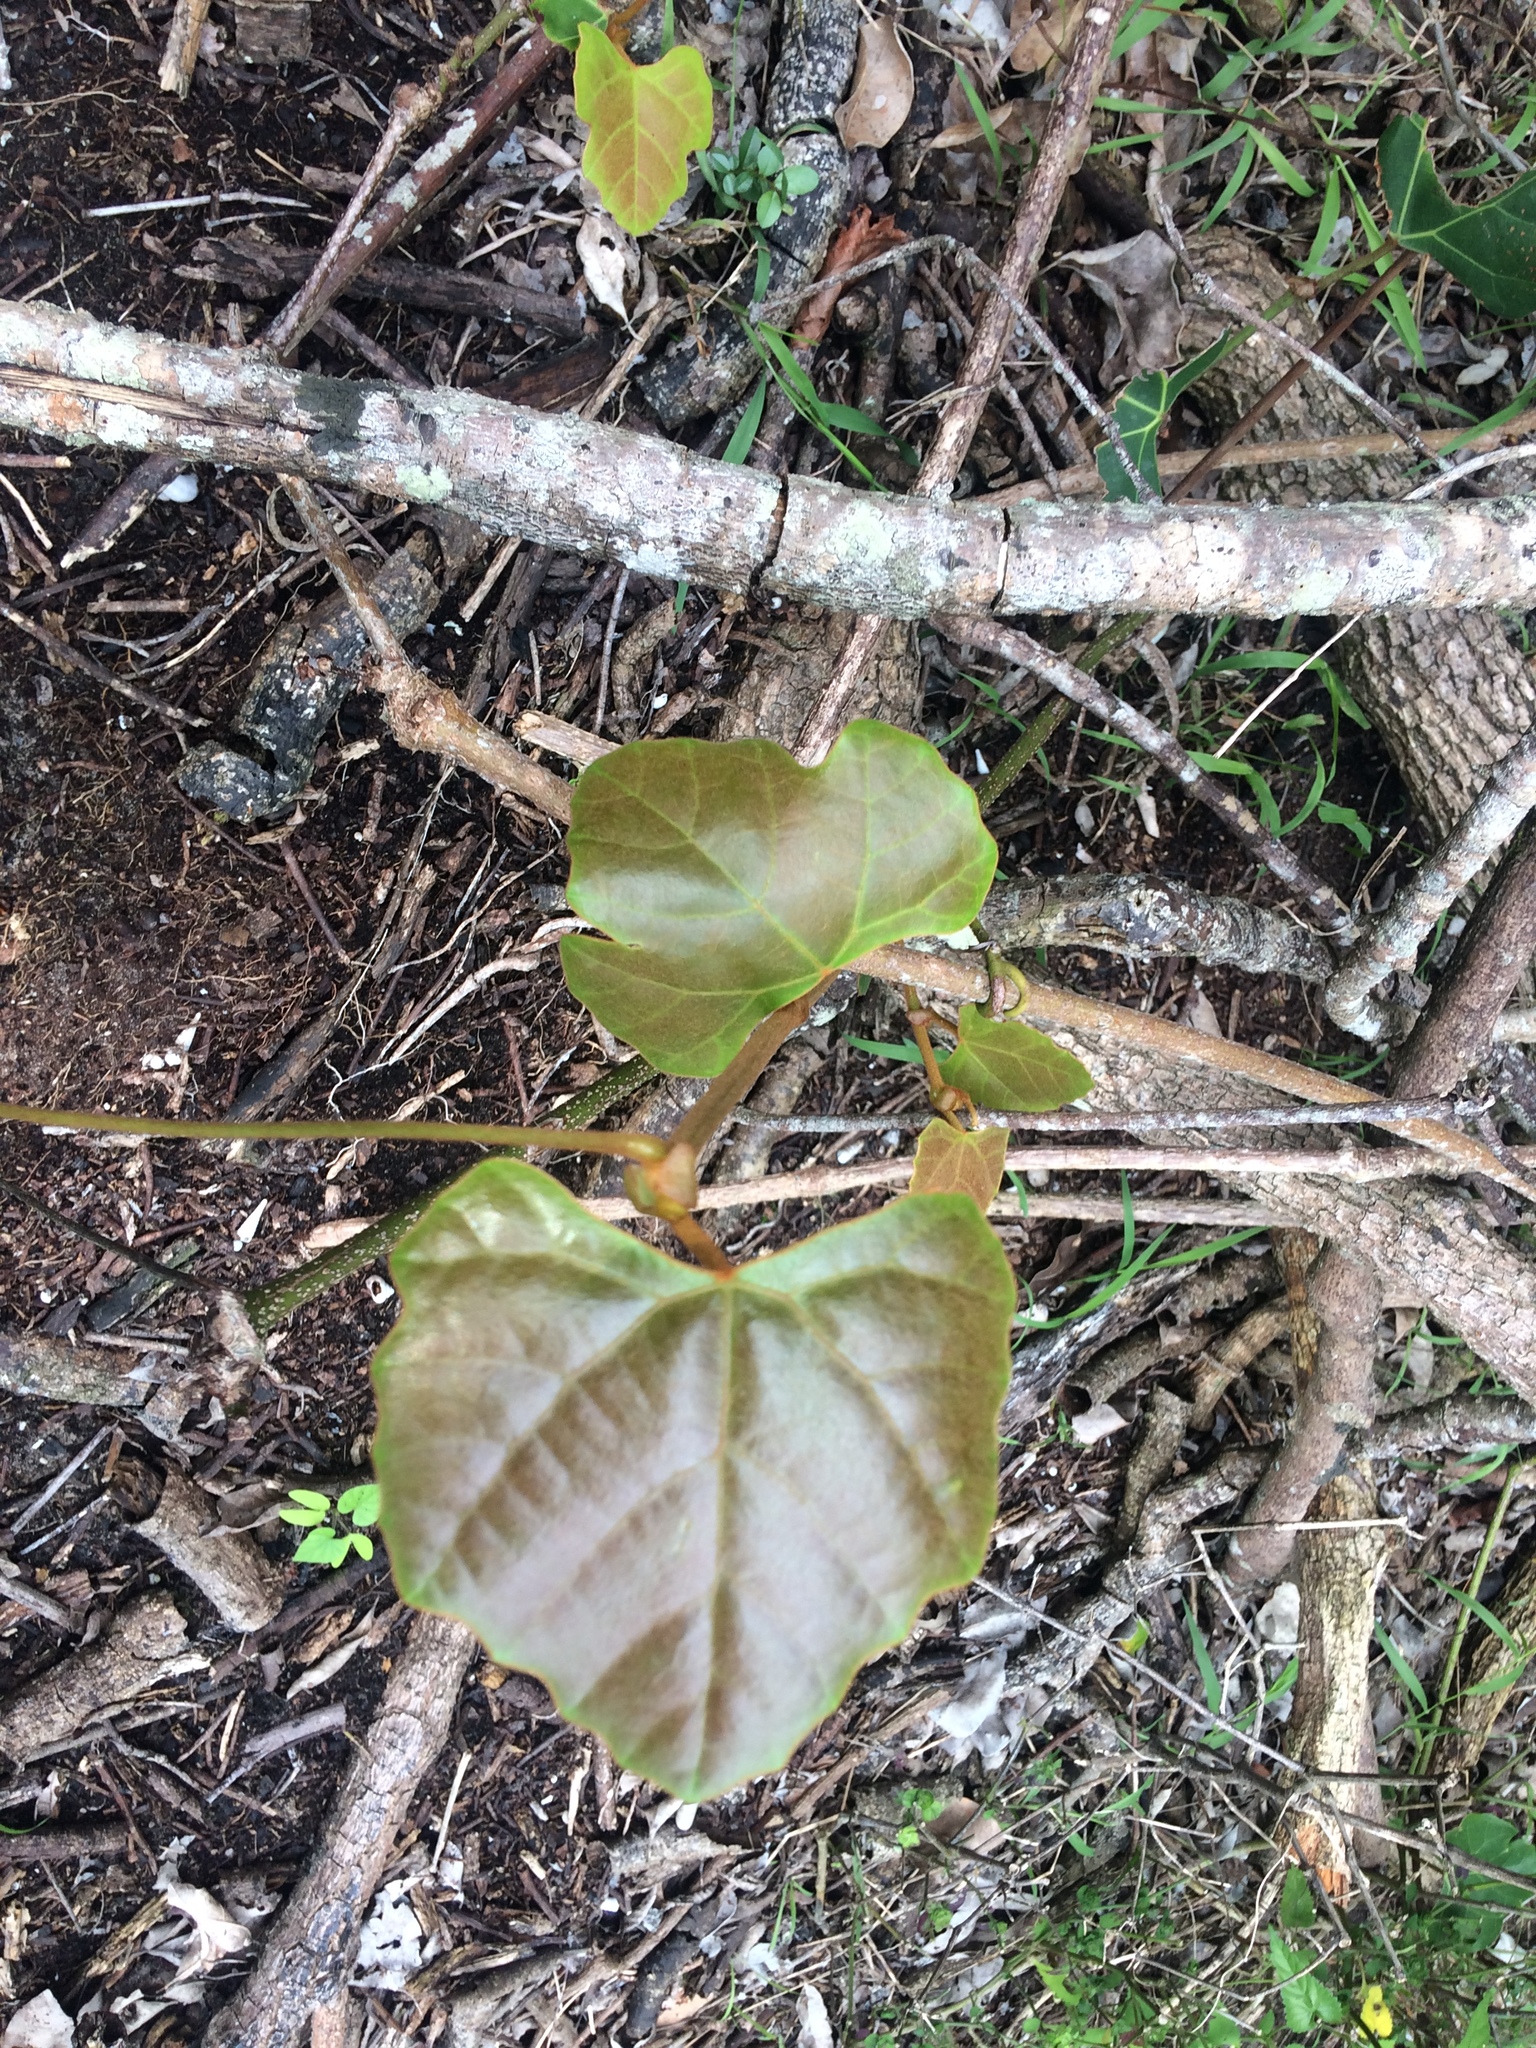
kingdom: Plantae
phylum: Tracheophyta
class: Magnoliopsida
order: Vitales
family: Vitaceae
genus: Rhoicissus
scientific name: Rhoicissus tomentosa
